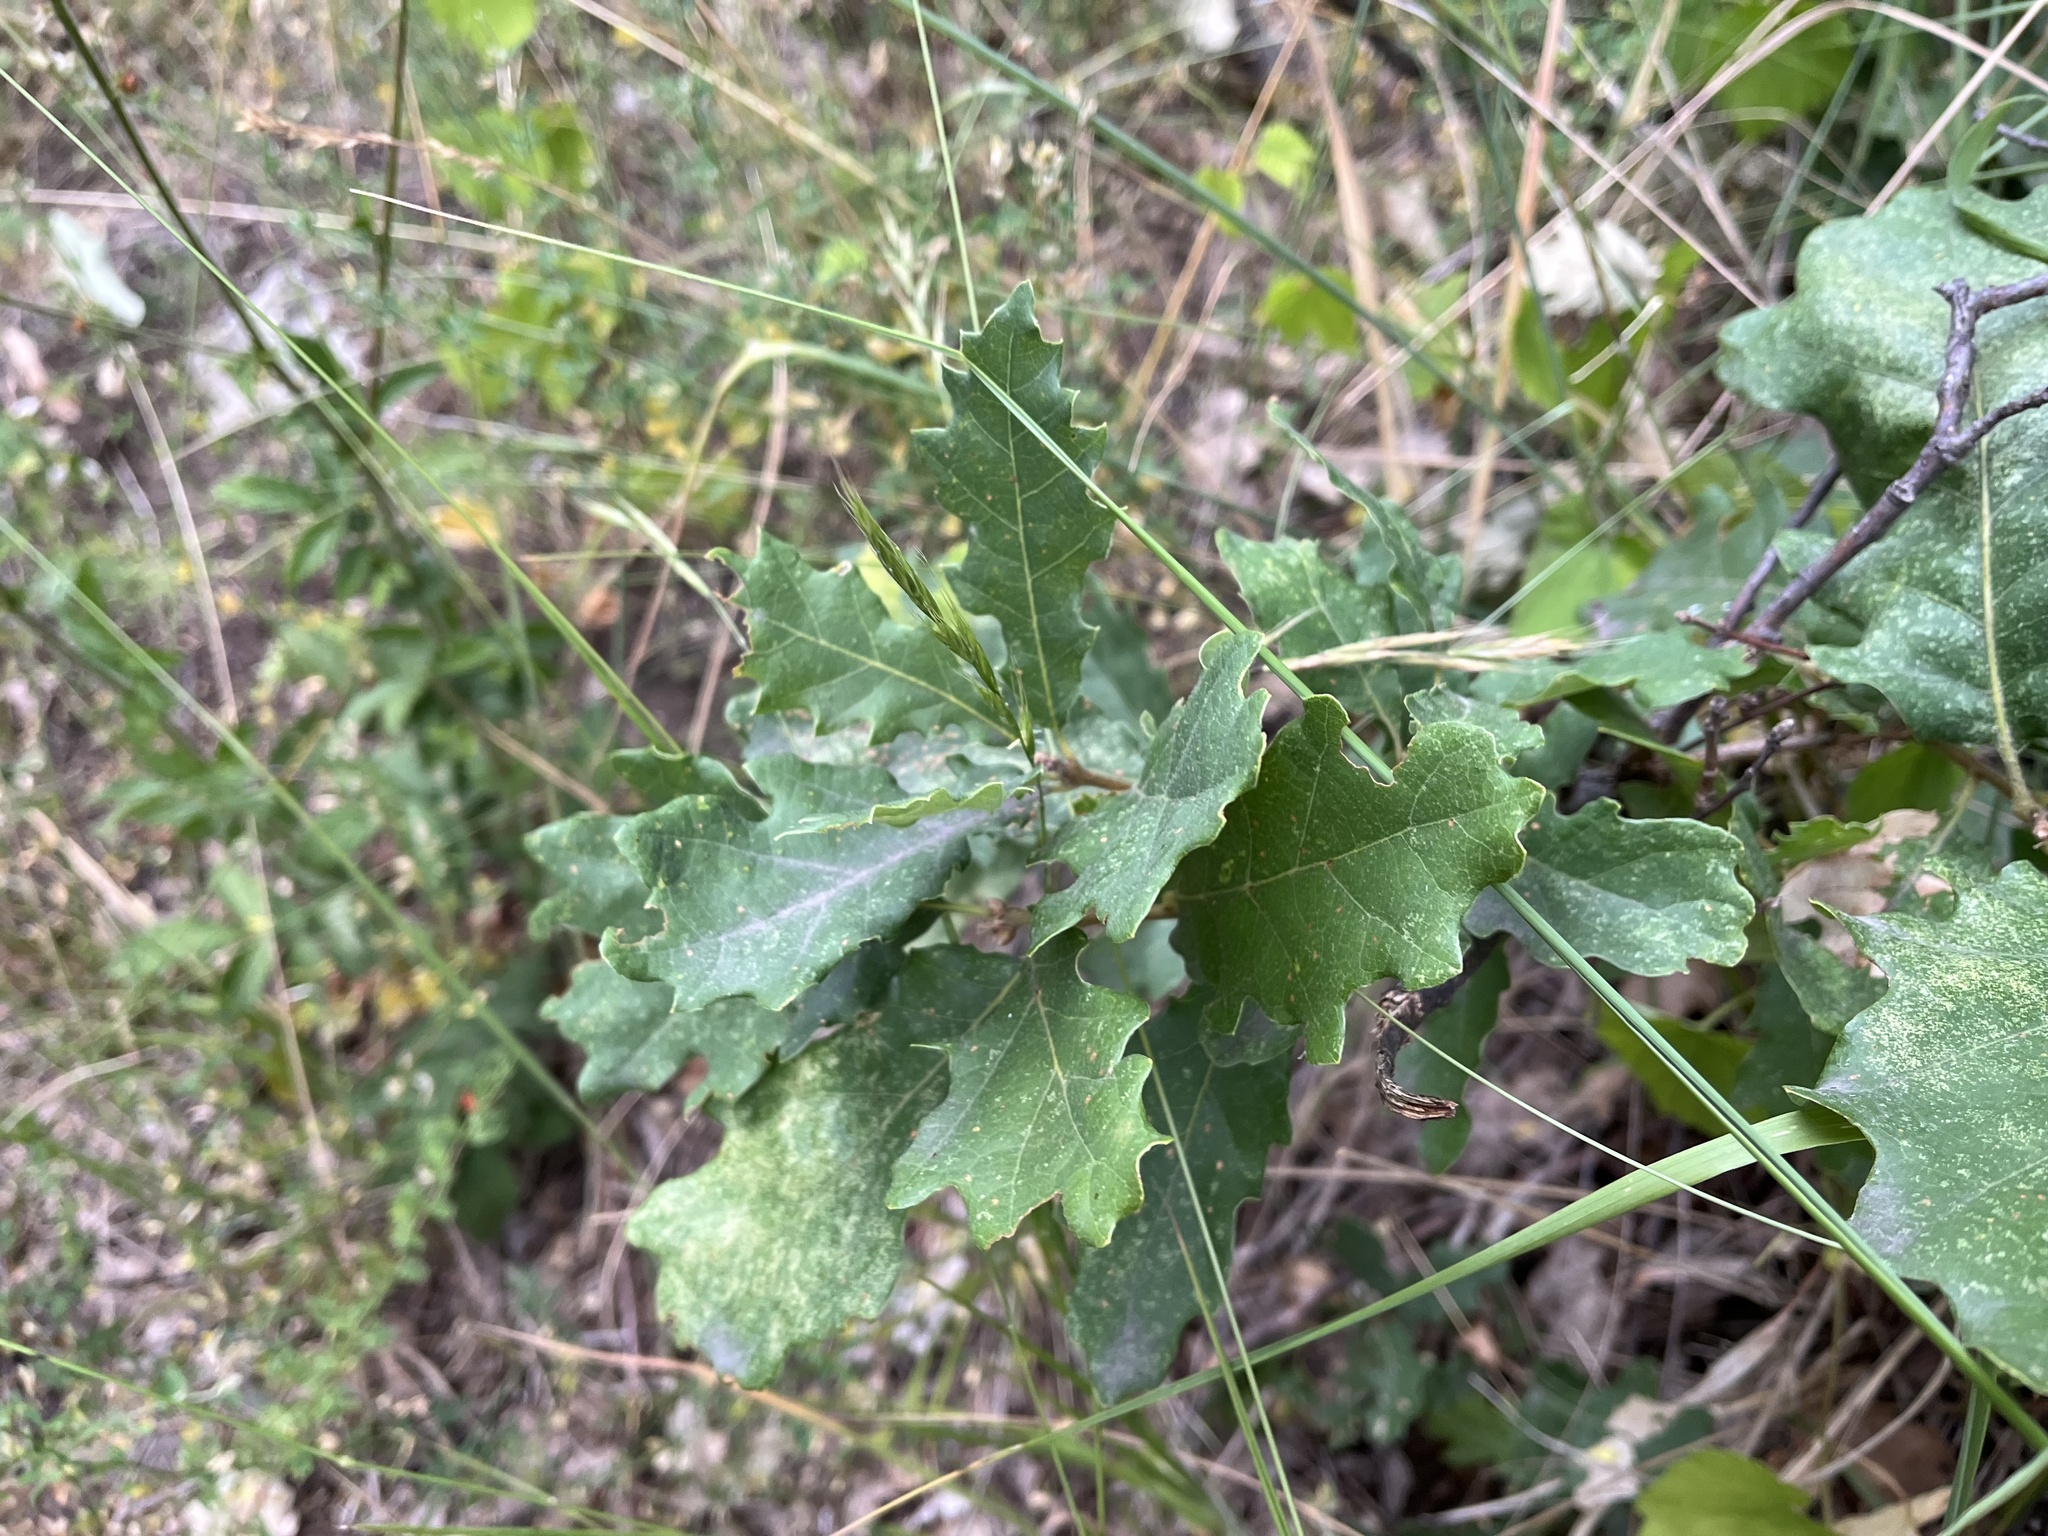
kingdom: Plantae
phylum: Tracheophyta
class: Magnoliopsida
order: Fagales
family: Fagaceae
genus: Quercus
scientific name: Quercus petraea
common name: Sessile oak
